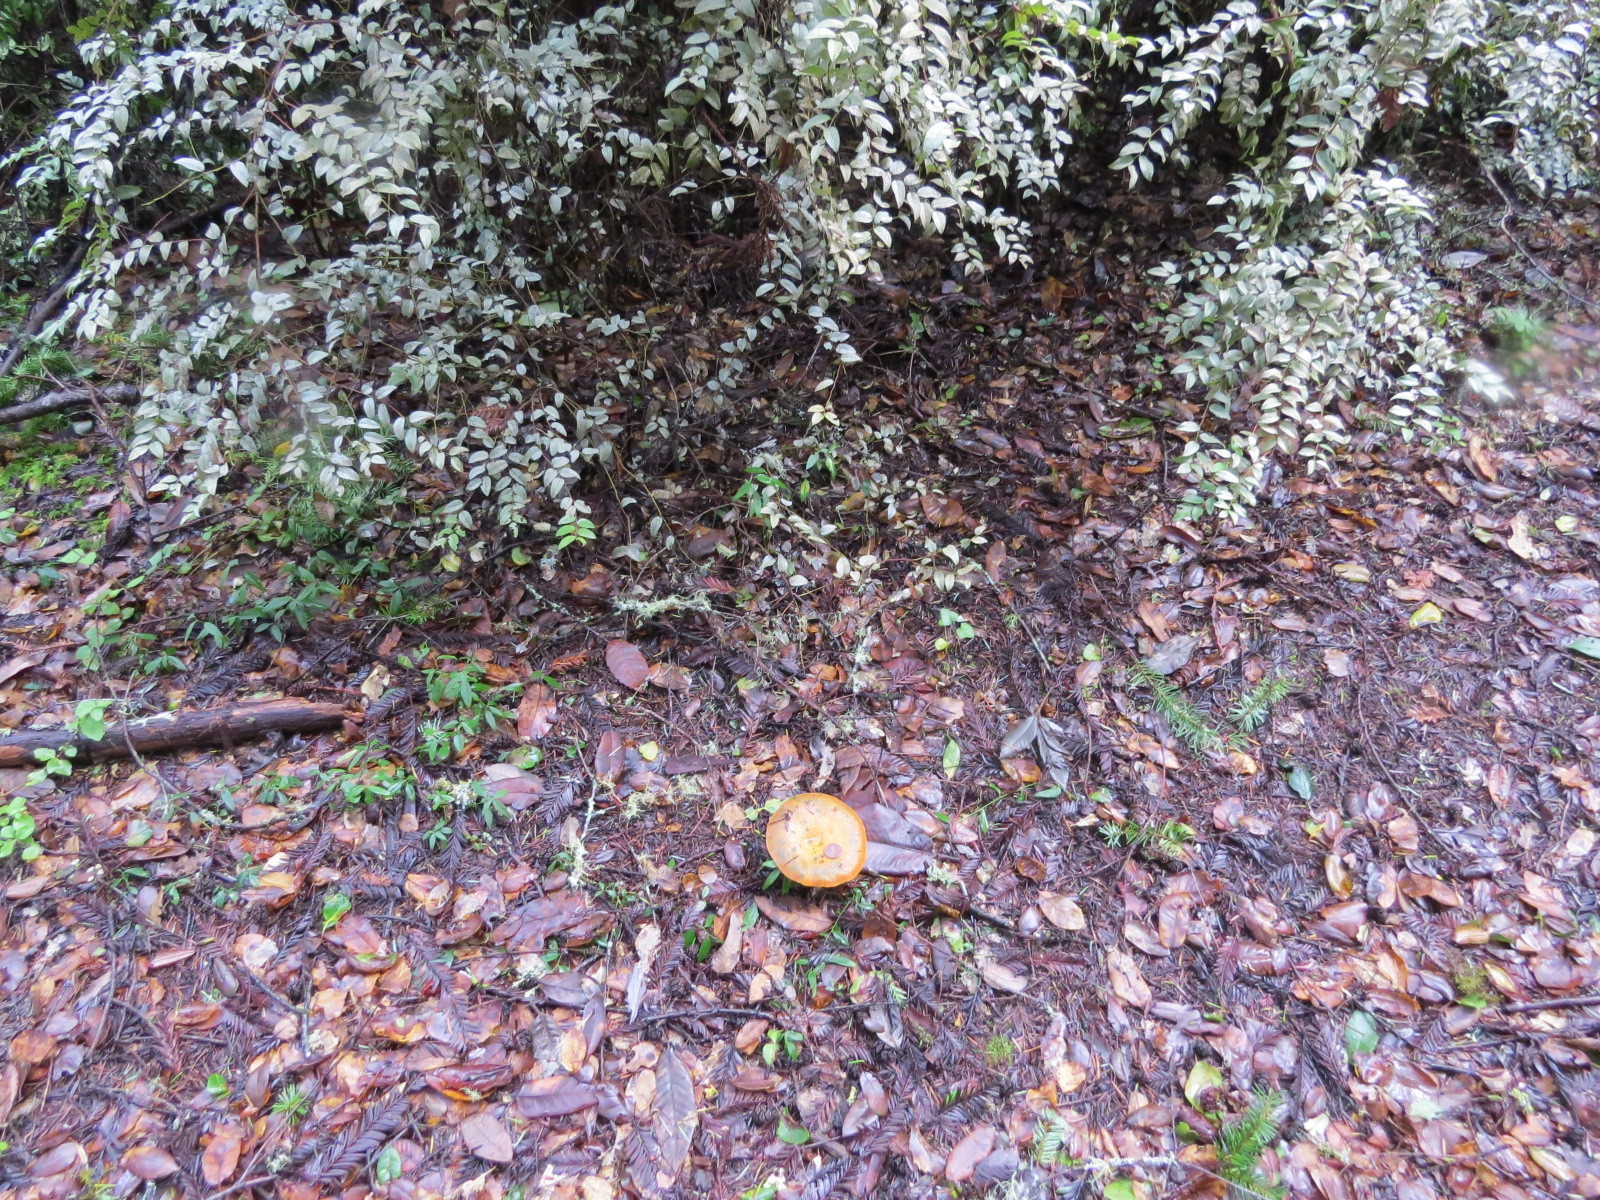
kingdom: Fungi
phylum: Basidiomycota
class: Agaricomycetes
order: Russulales
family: Russulaceae
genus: Lactarius
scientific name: Lactarius deliciosus
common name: Saffron milk-cap
